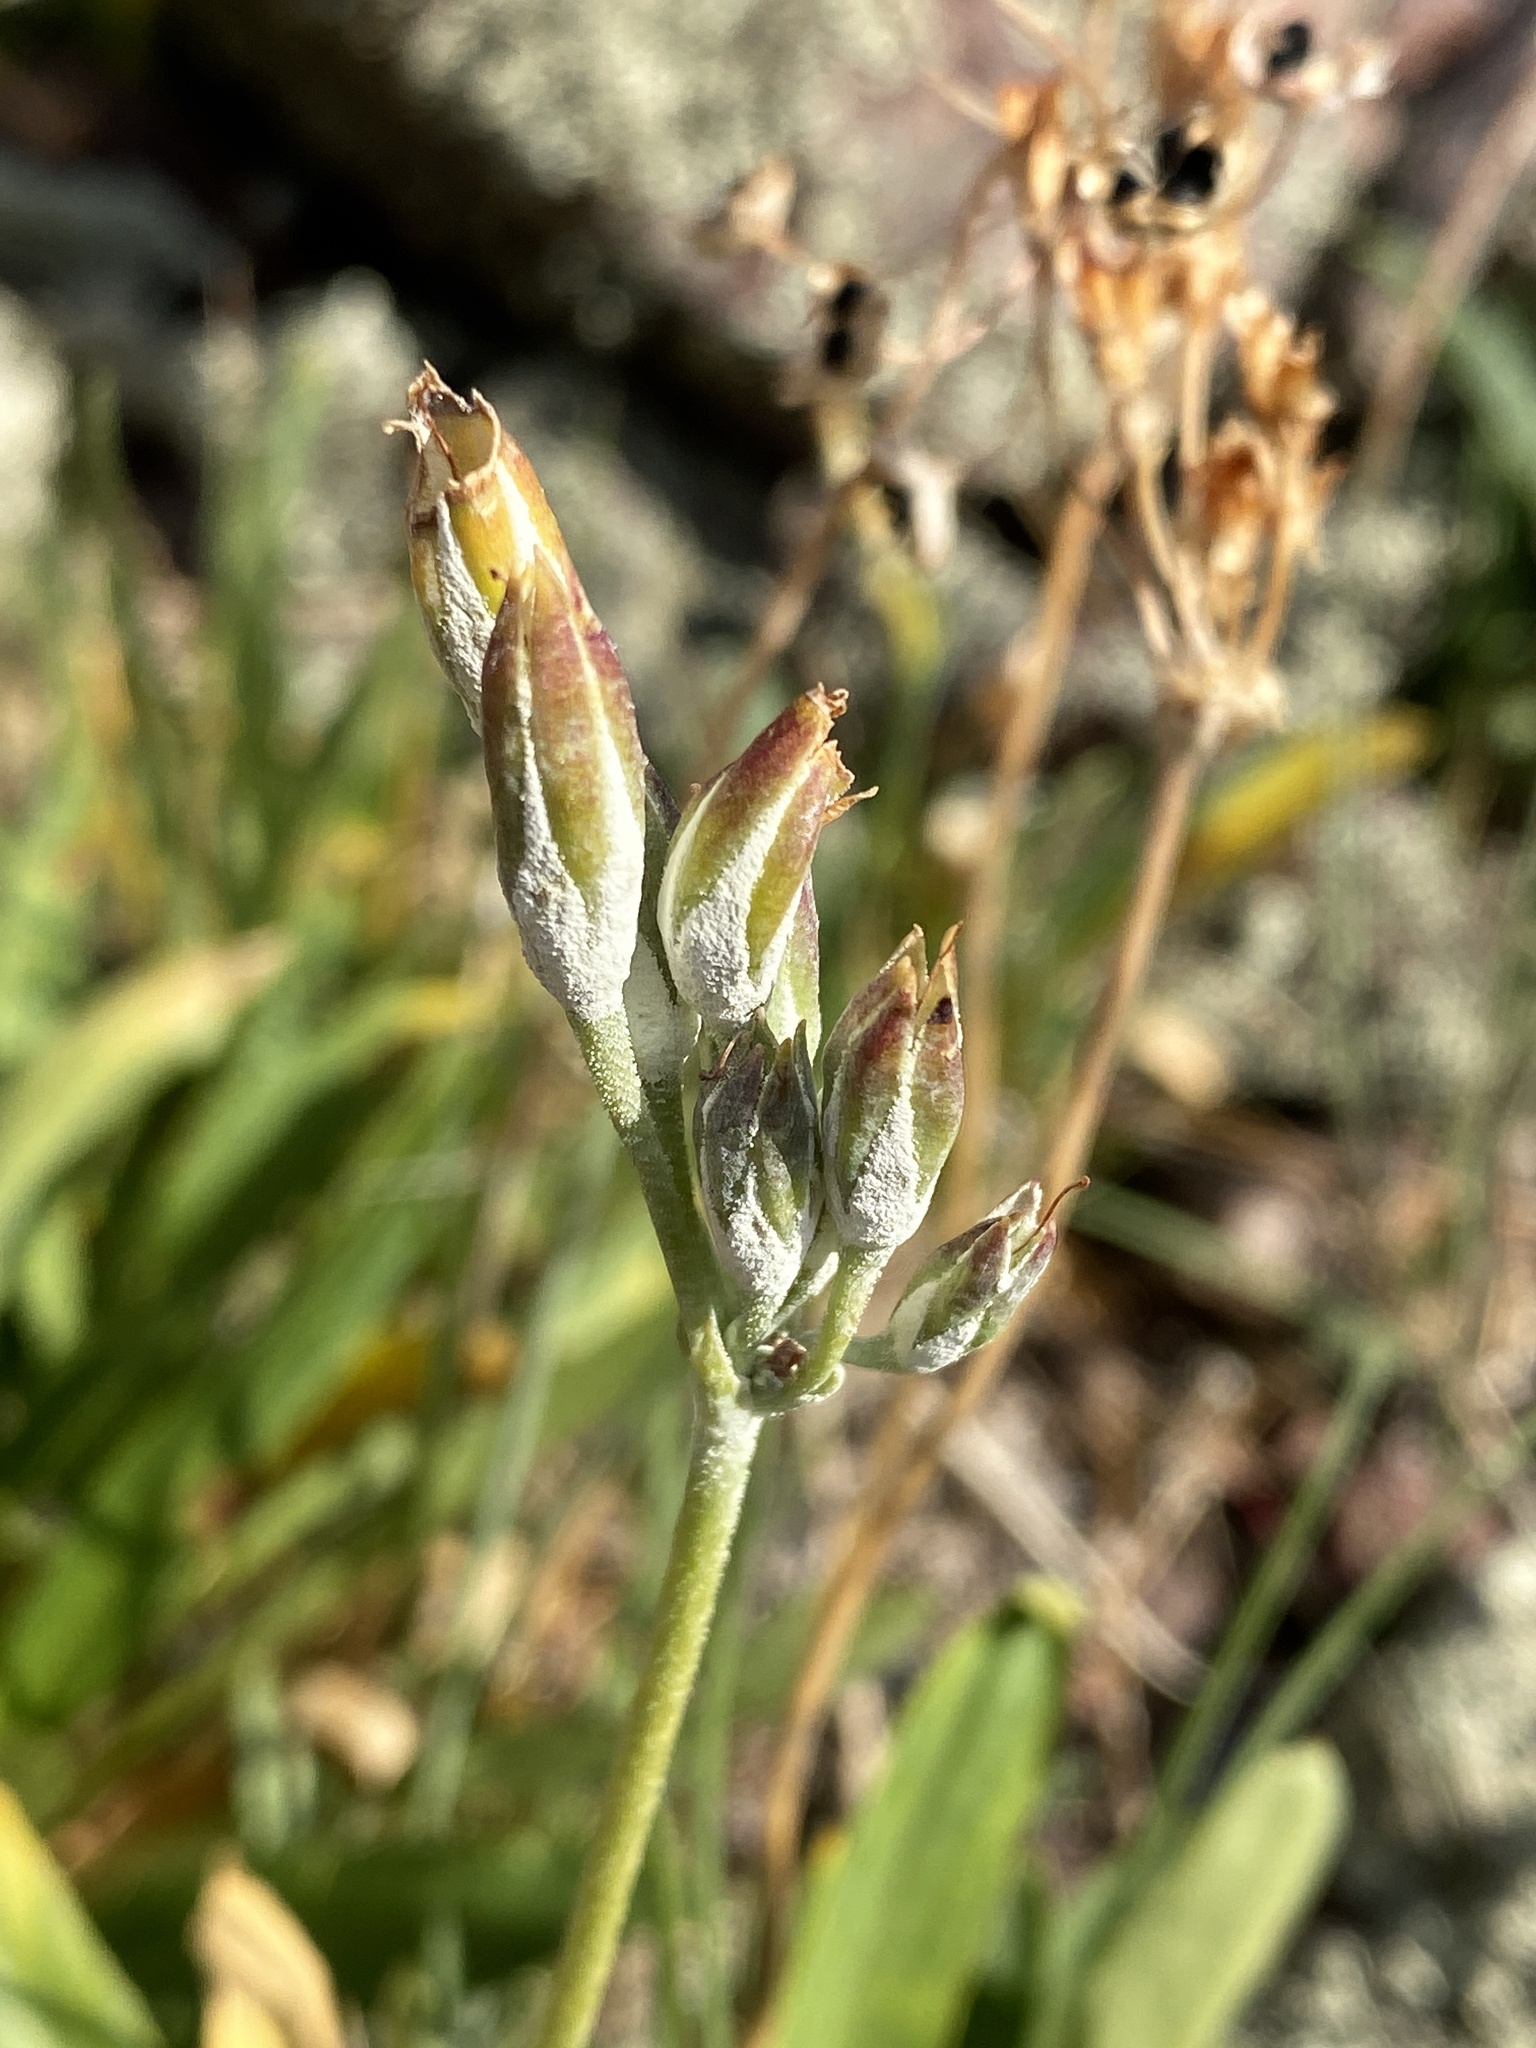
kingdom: Plantae
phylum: Tracheophyta
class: Magnoliopsida
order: Ericales
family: Primulaceae
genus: Primula
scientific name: Primula rusbyi
